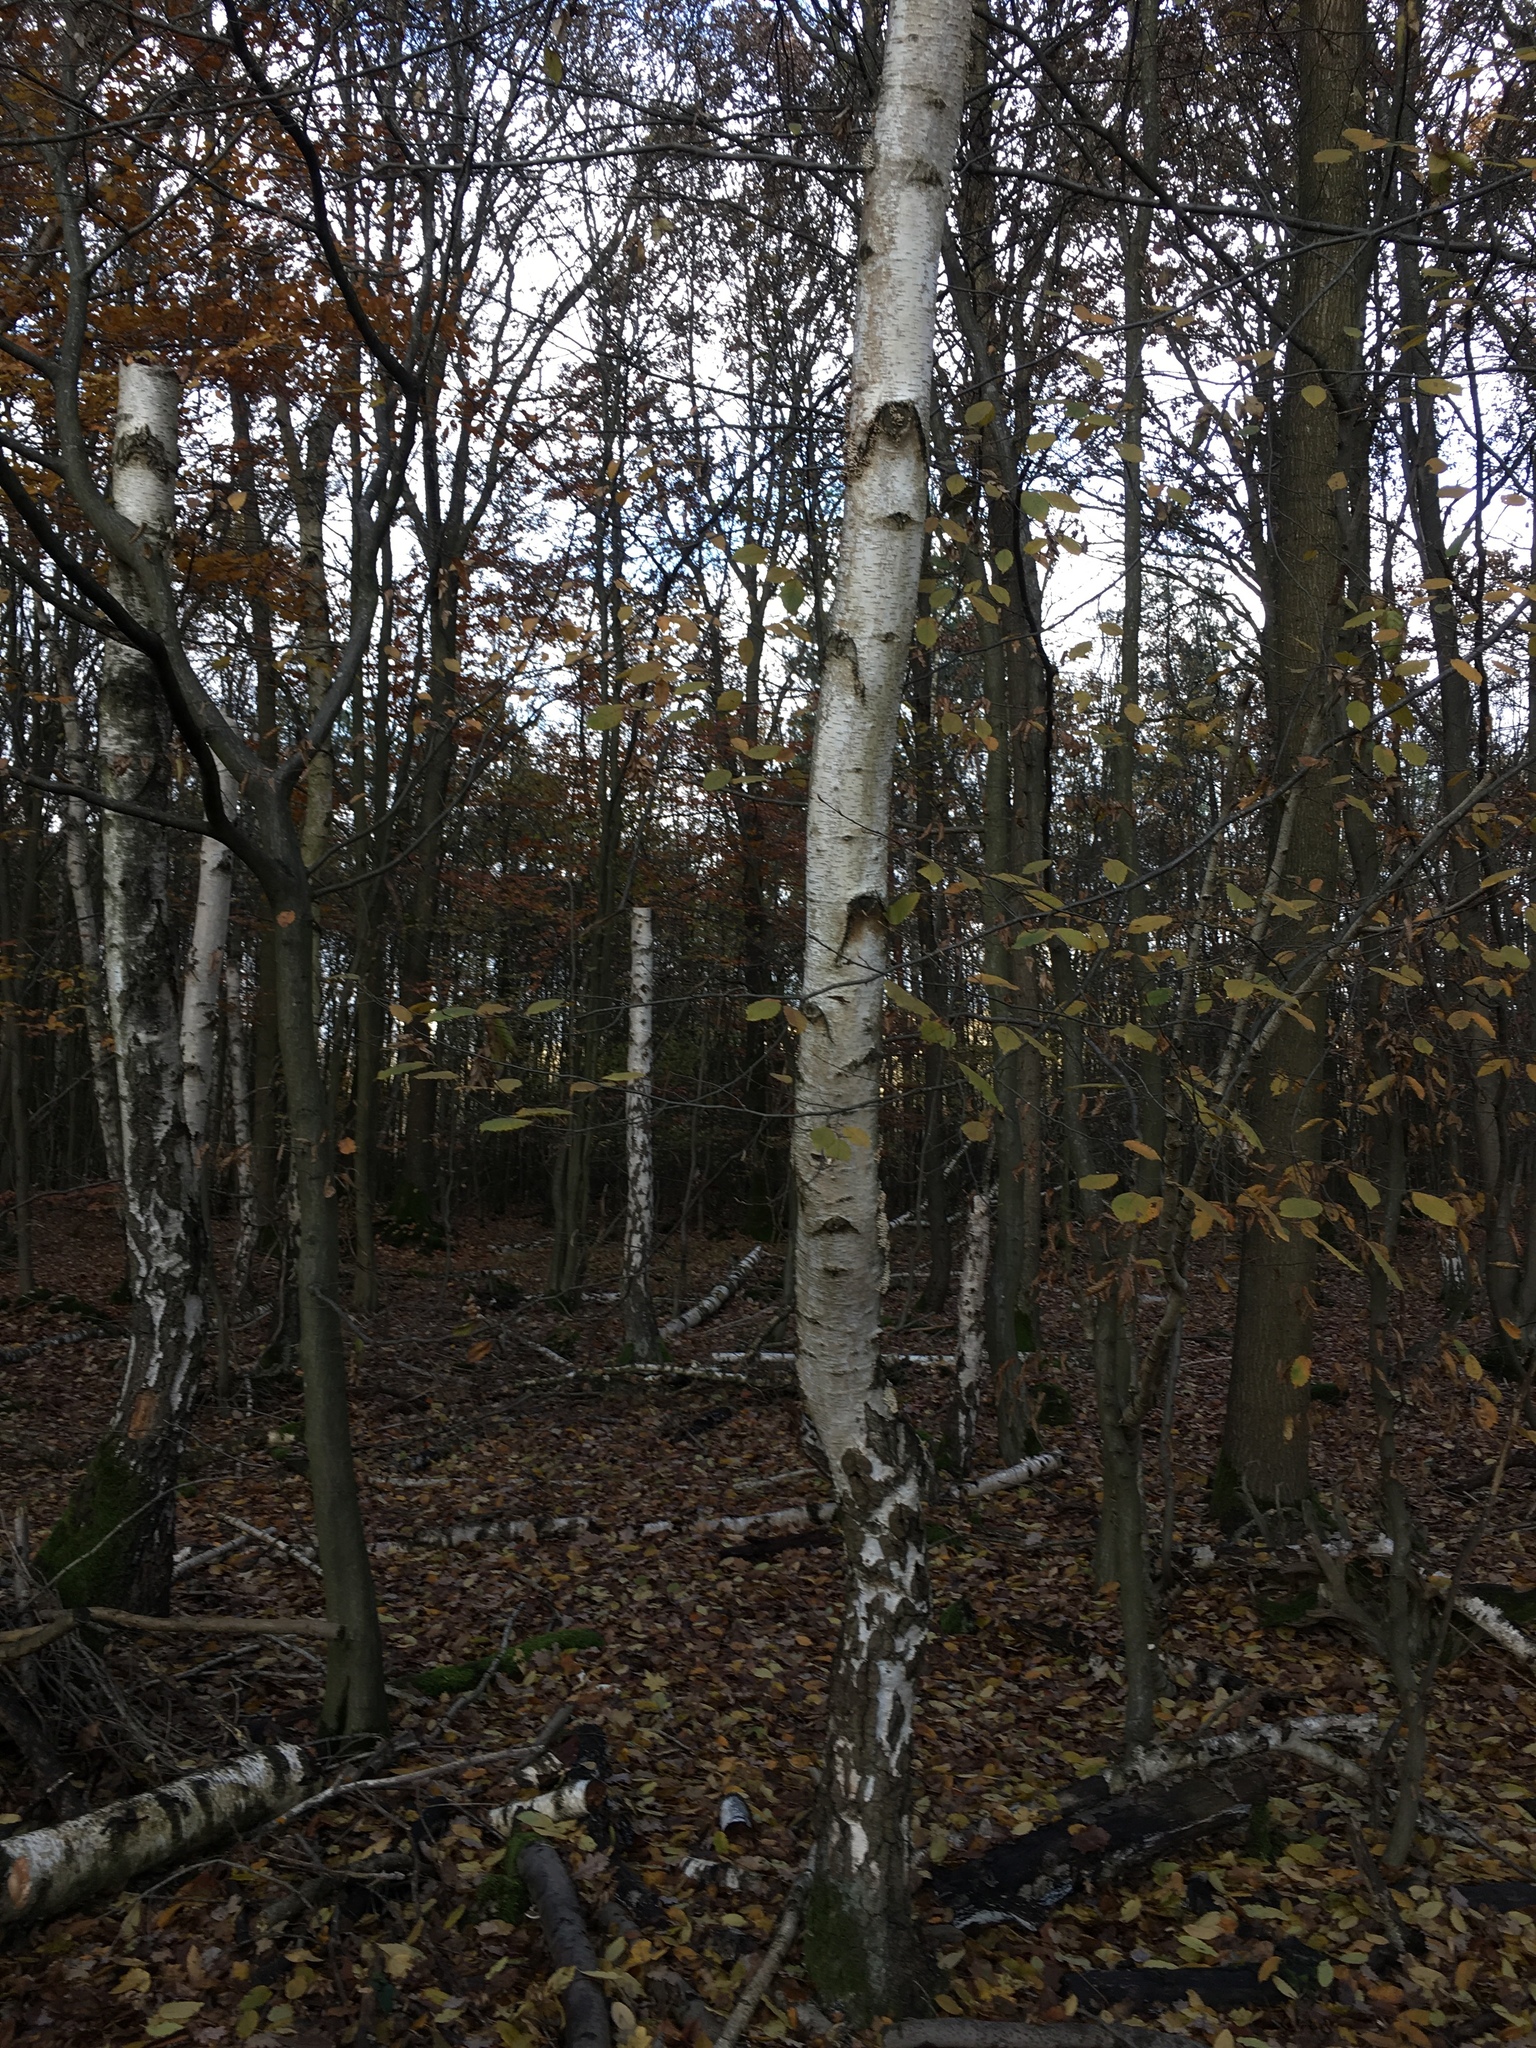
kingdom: Plantae
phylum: Tracheophyta
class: Magnoliopsida
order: Fagales
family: Betulaceae
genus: Betula
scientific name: Betula pendula
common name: Silver birch
